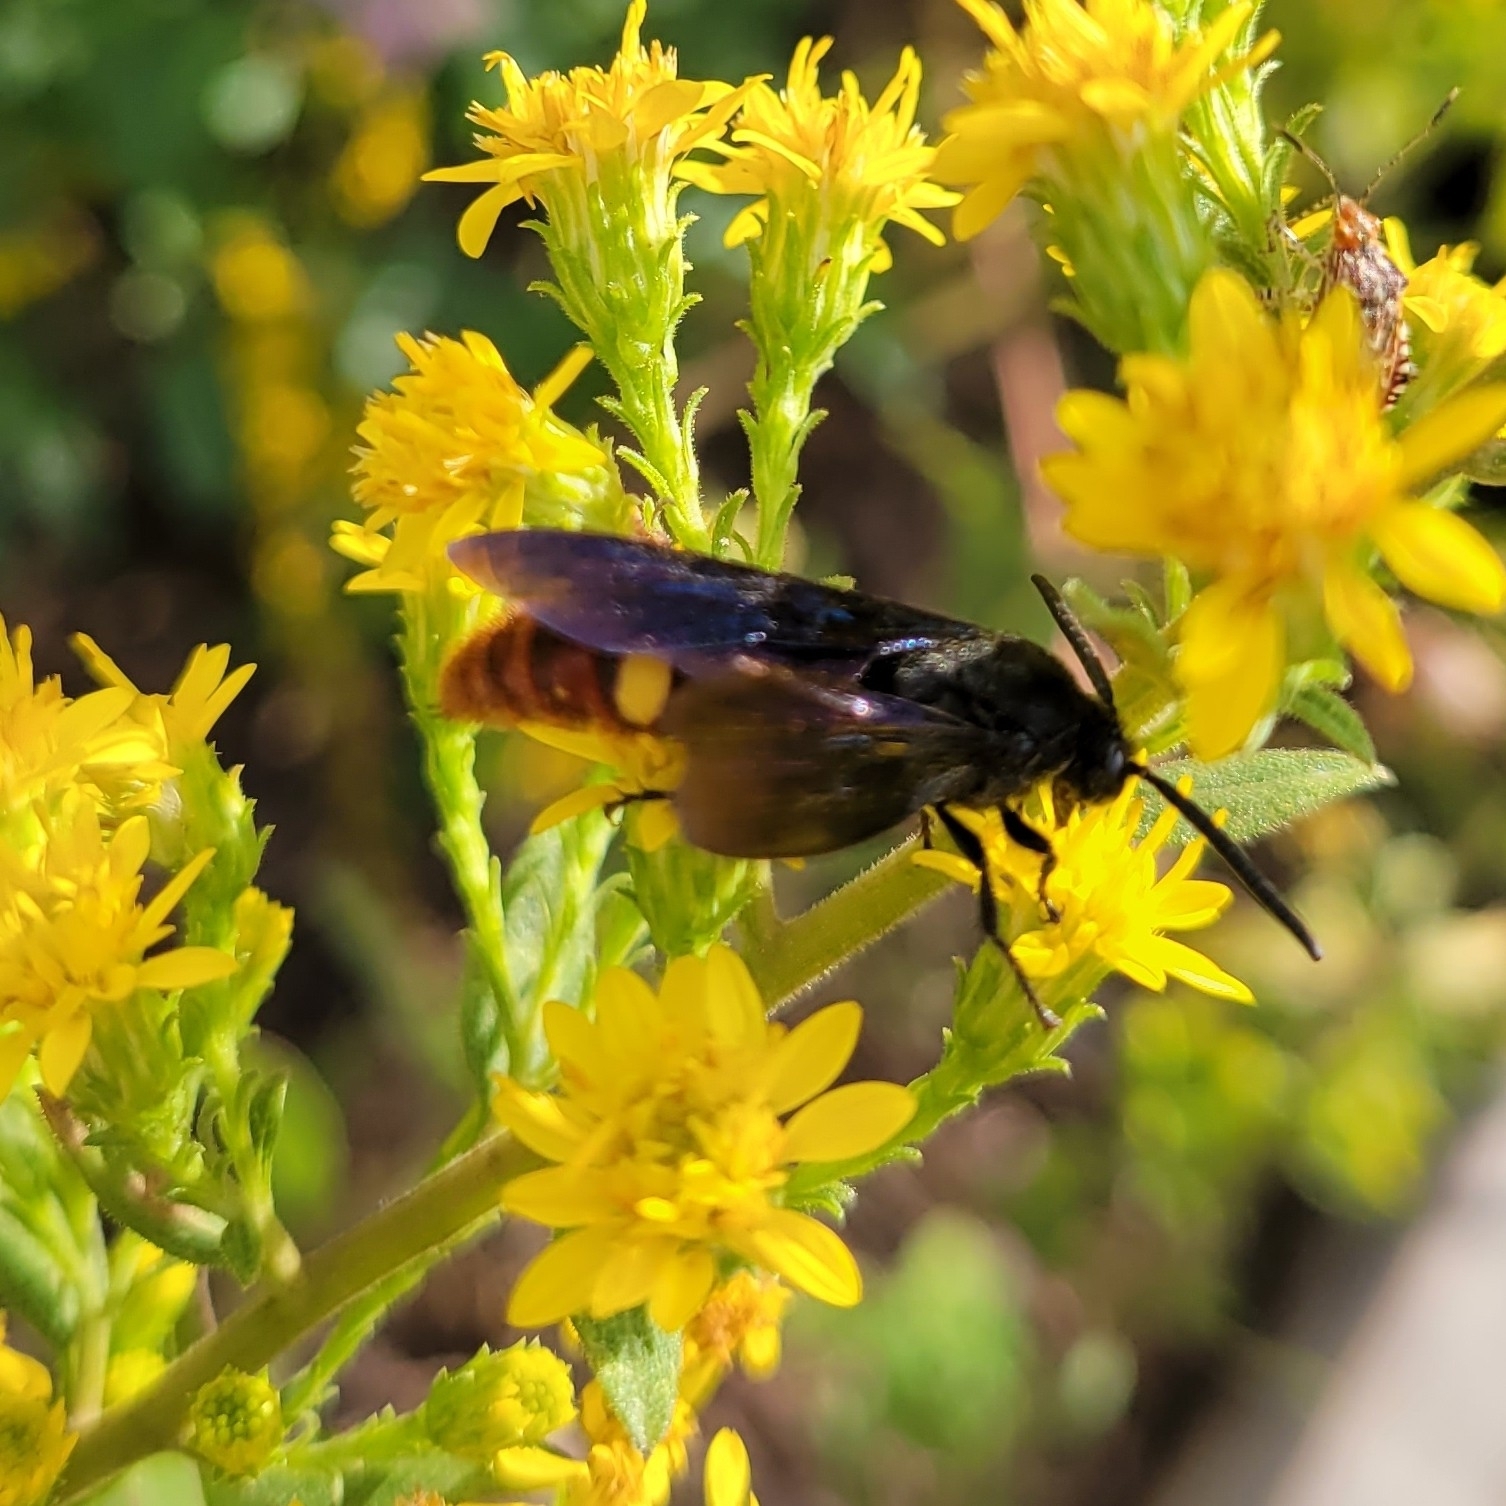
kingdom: Animalia
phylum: Arthropoda
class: Insecta
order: Hymenoptera
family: Scoliidae
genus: Scolia
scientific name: Scolia dubia
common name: Blue-winged scoliid wasp
